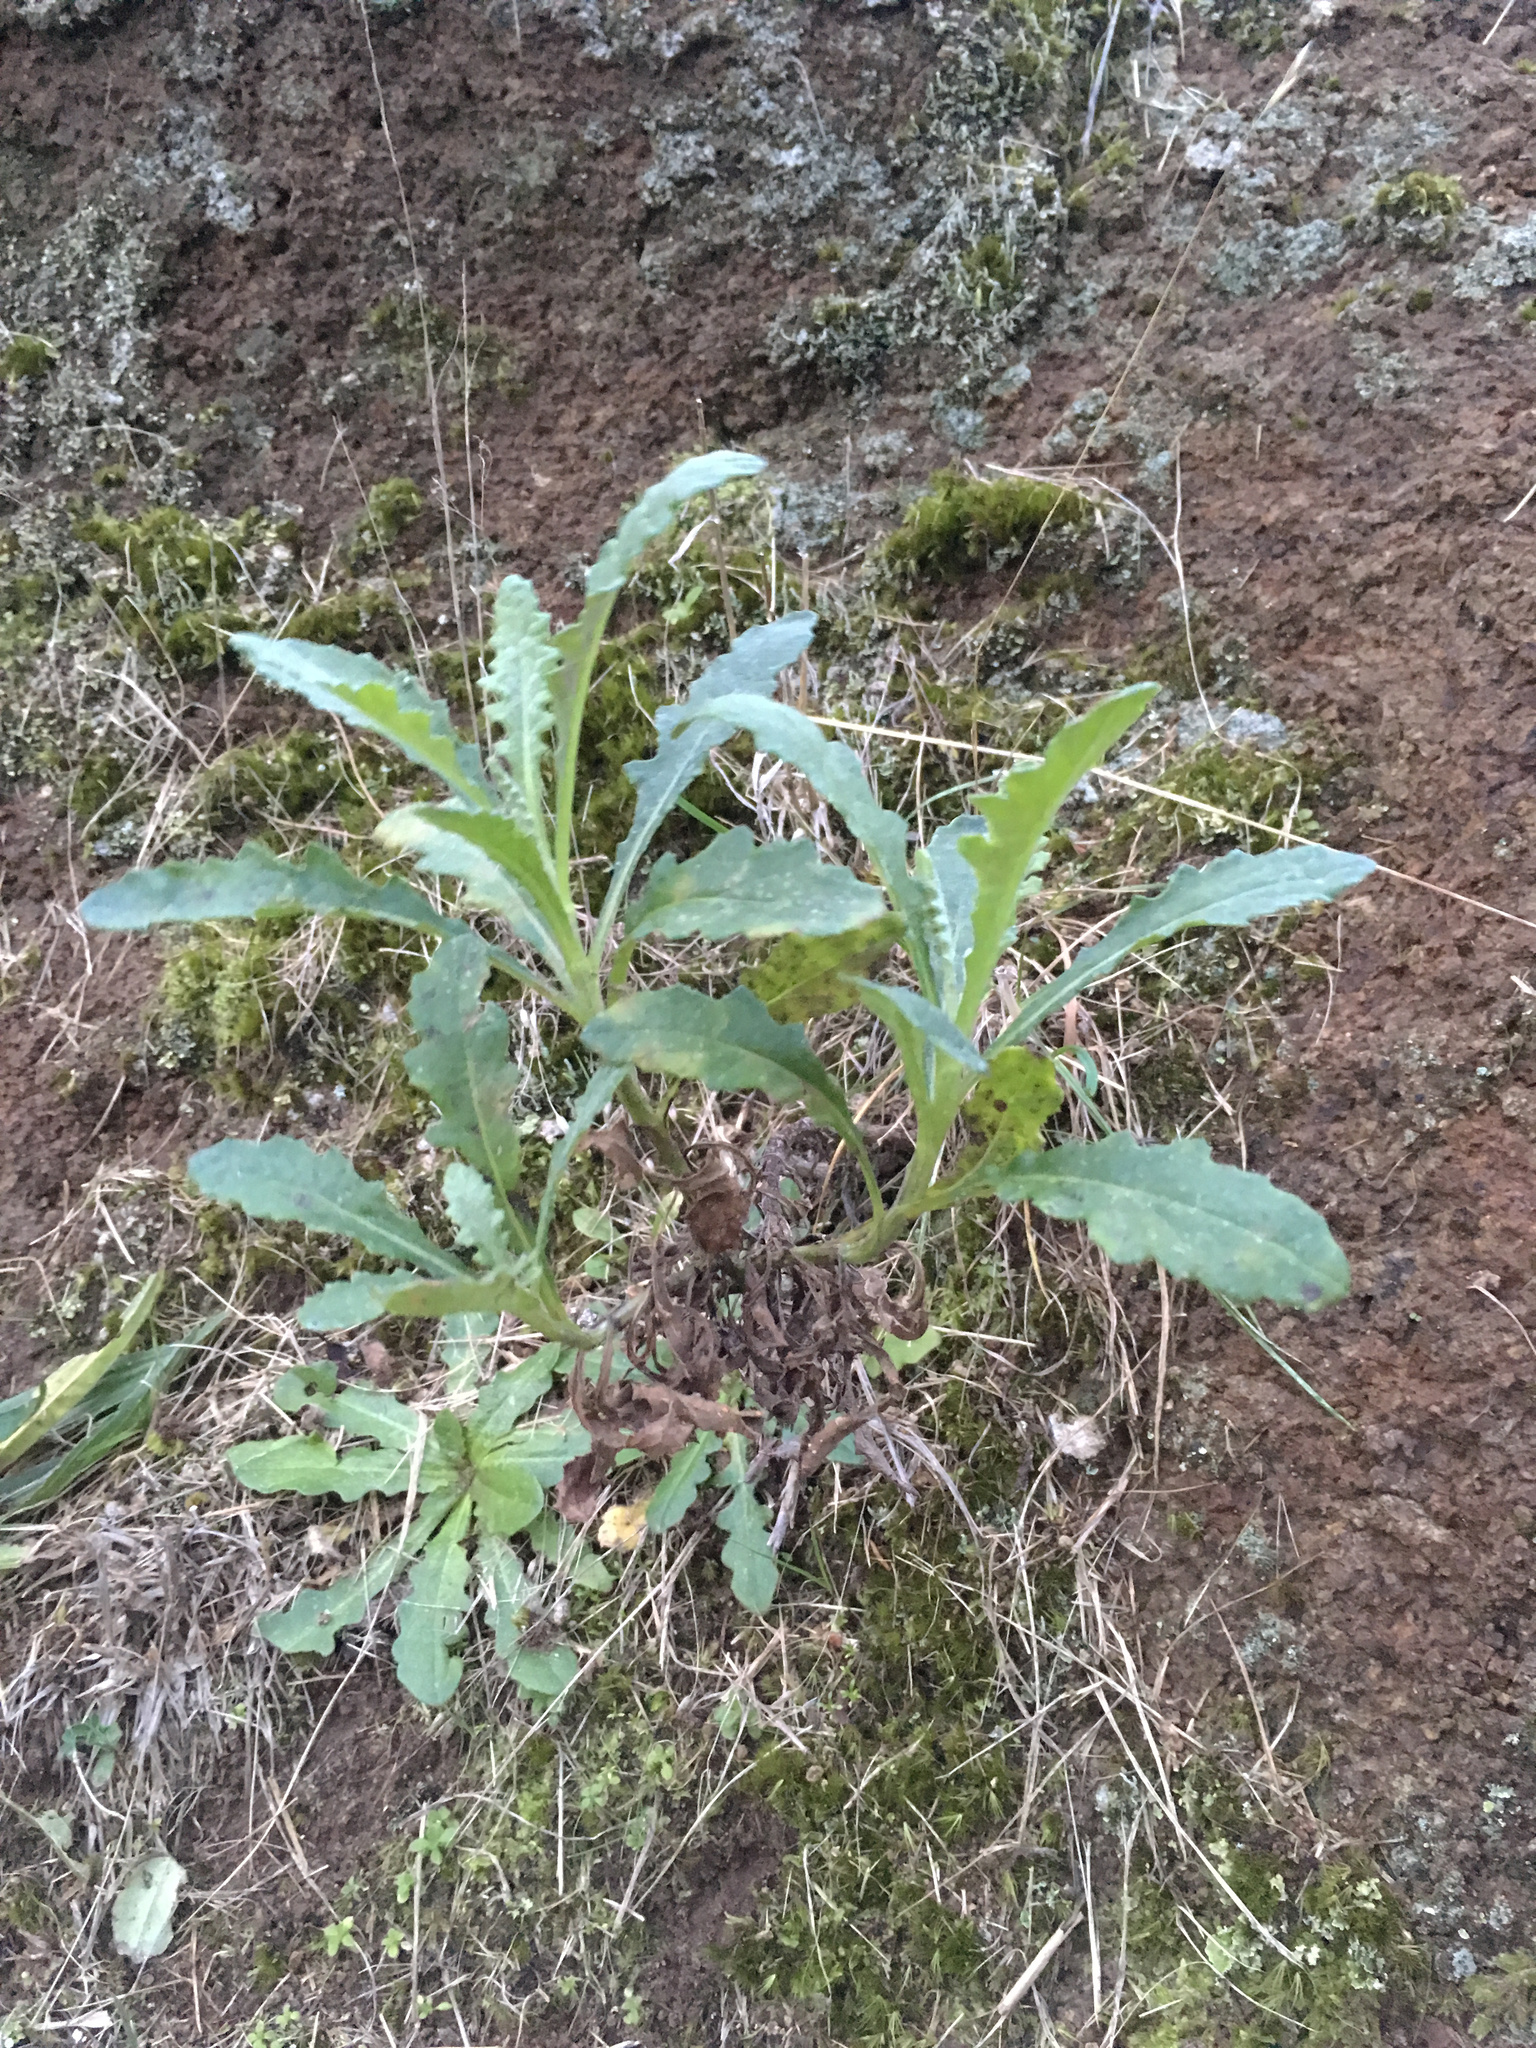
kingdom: Plantae
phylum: Tracheophyta
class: Magnoliopsida
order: Asterales
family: Asteraceae
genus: Senecio
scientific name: Senecio glomeratus
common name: Cutleaf burnweed
